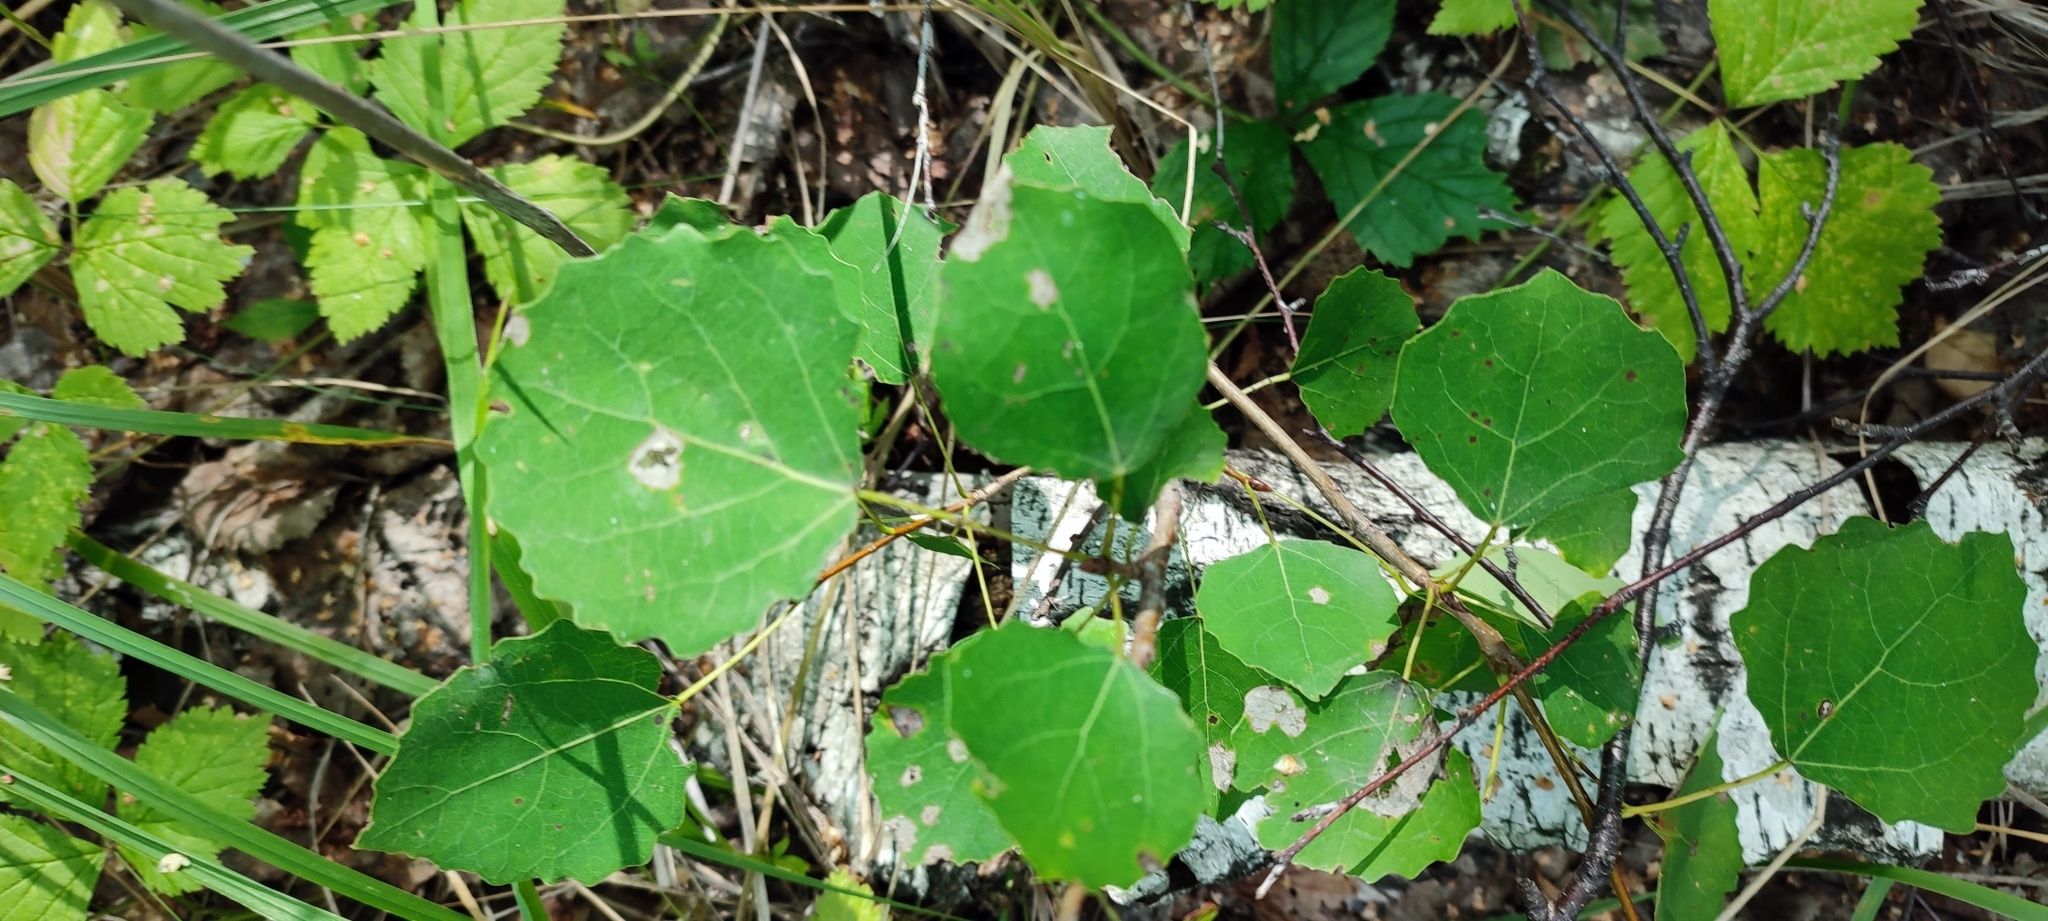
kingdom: Plantae
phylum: Tracheophyta
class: Magnoliopsida
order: Malpighiales
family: Salicaceae
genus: Populus
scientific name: Populus tremula
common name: European aspen
